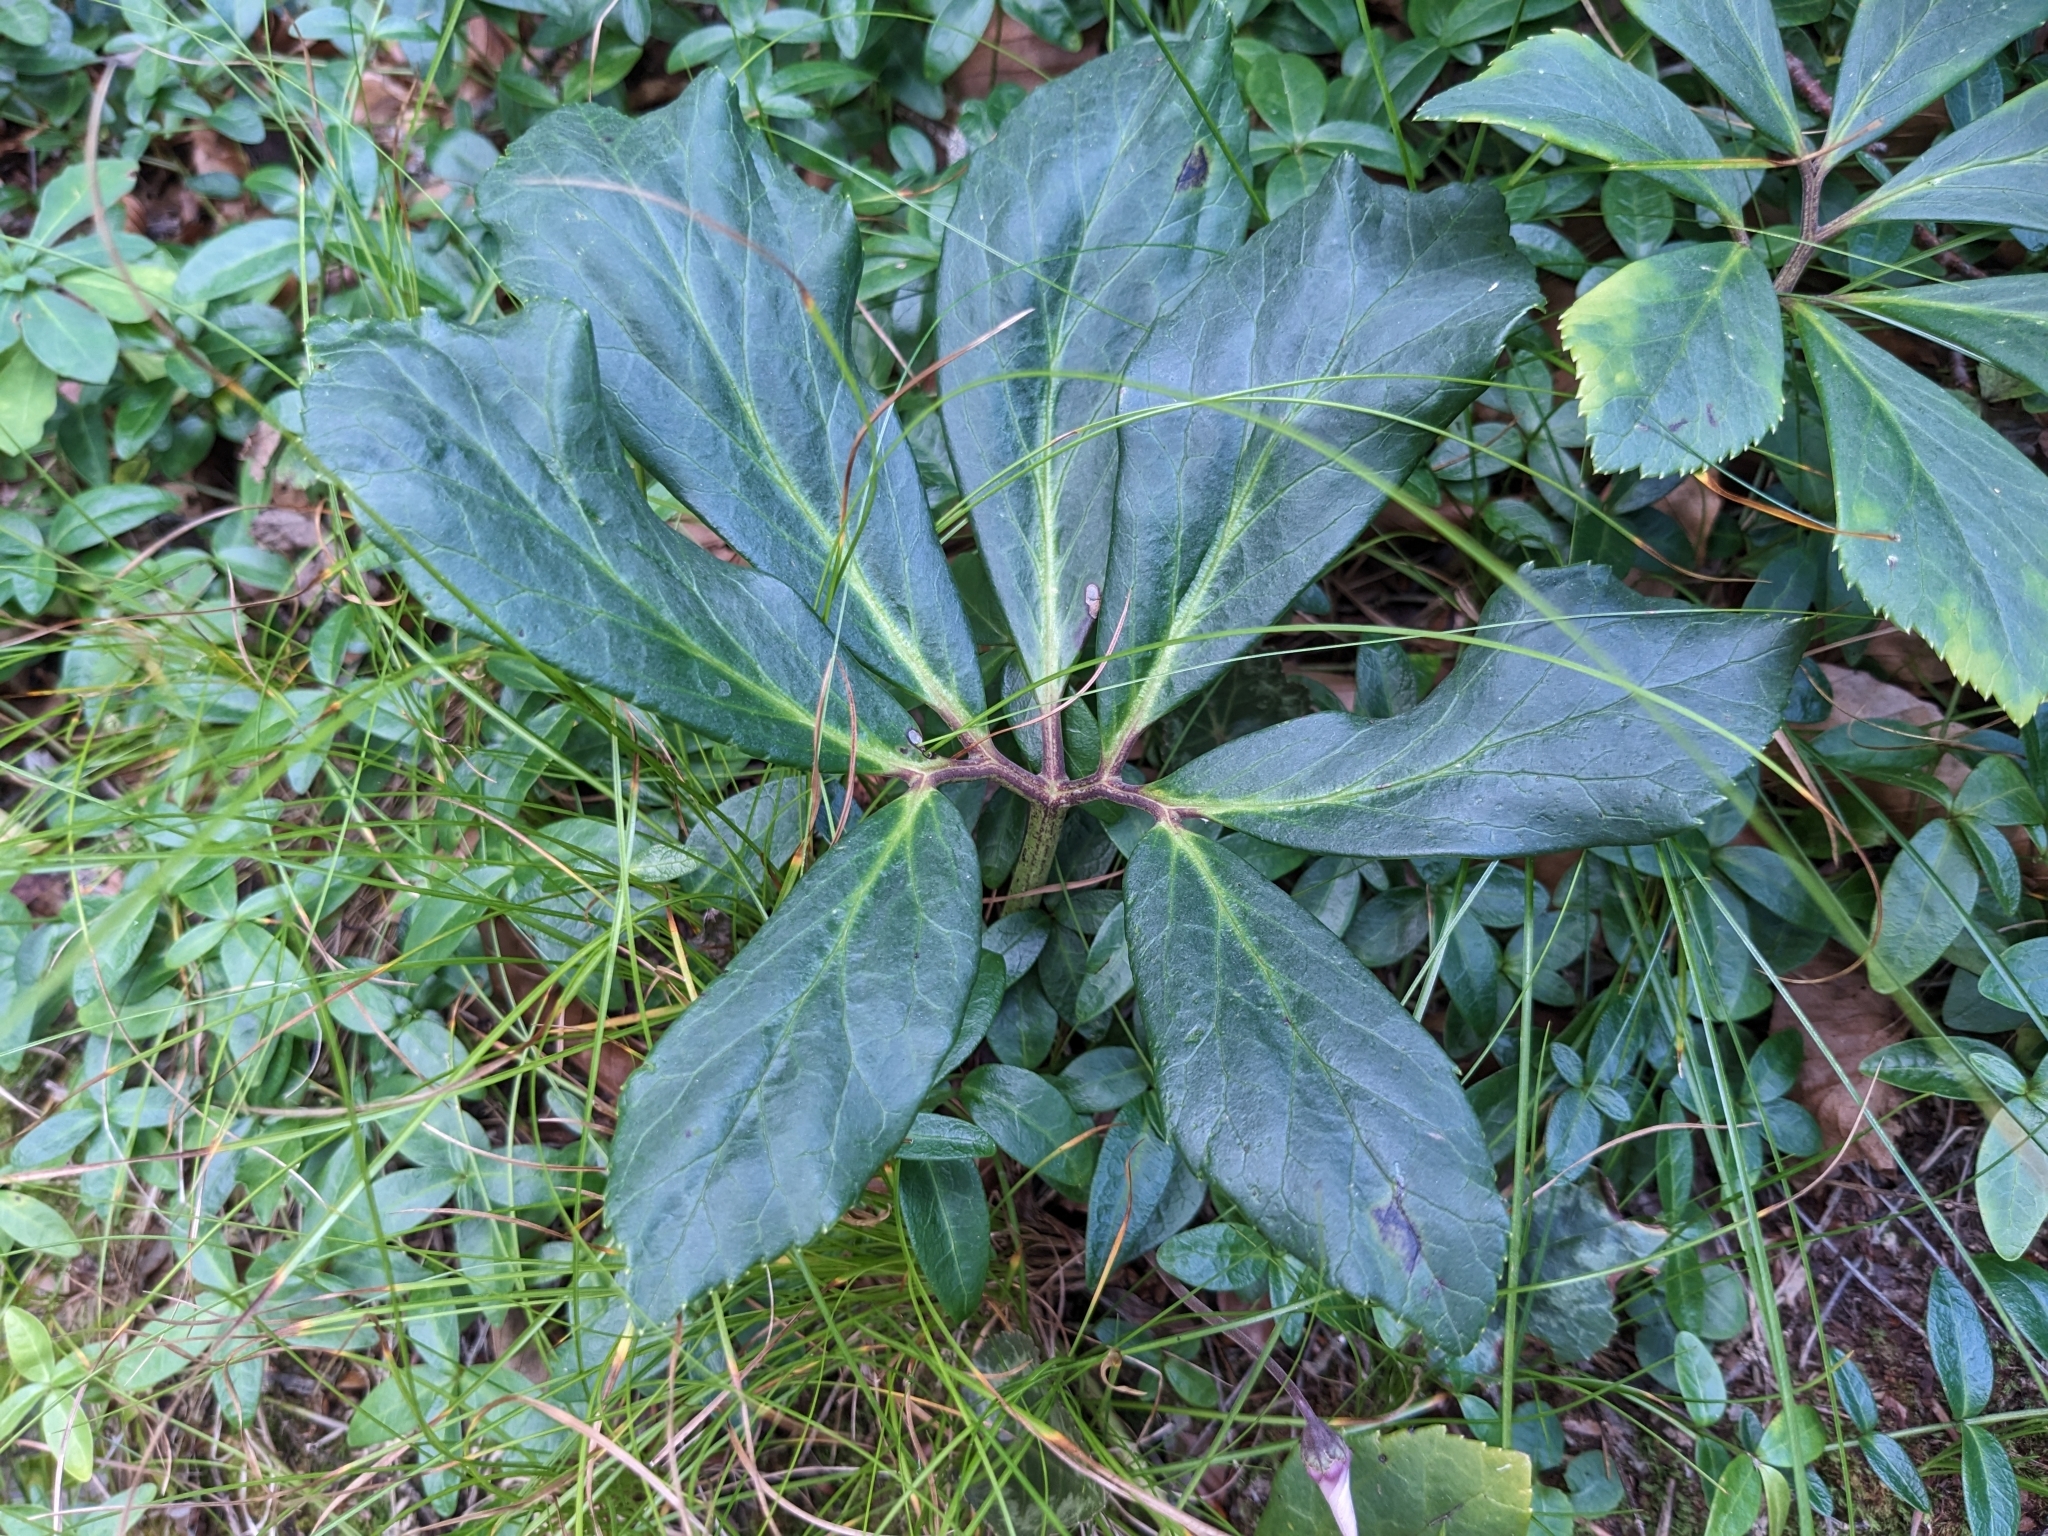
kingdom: Plantae
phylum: Tracheophyta
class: Magnoliopsida
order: Ranunculales
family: Ranunculaceae
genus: Helleborus
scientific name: Helleborus niger
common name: Black hellebore
